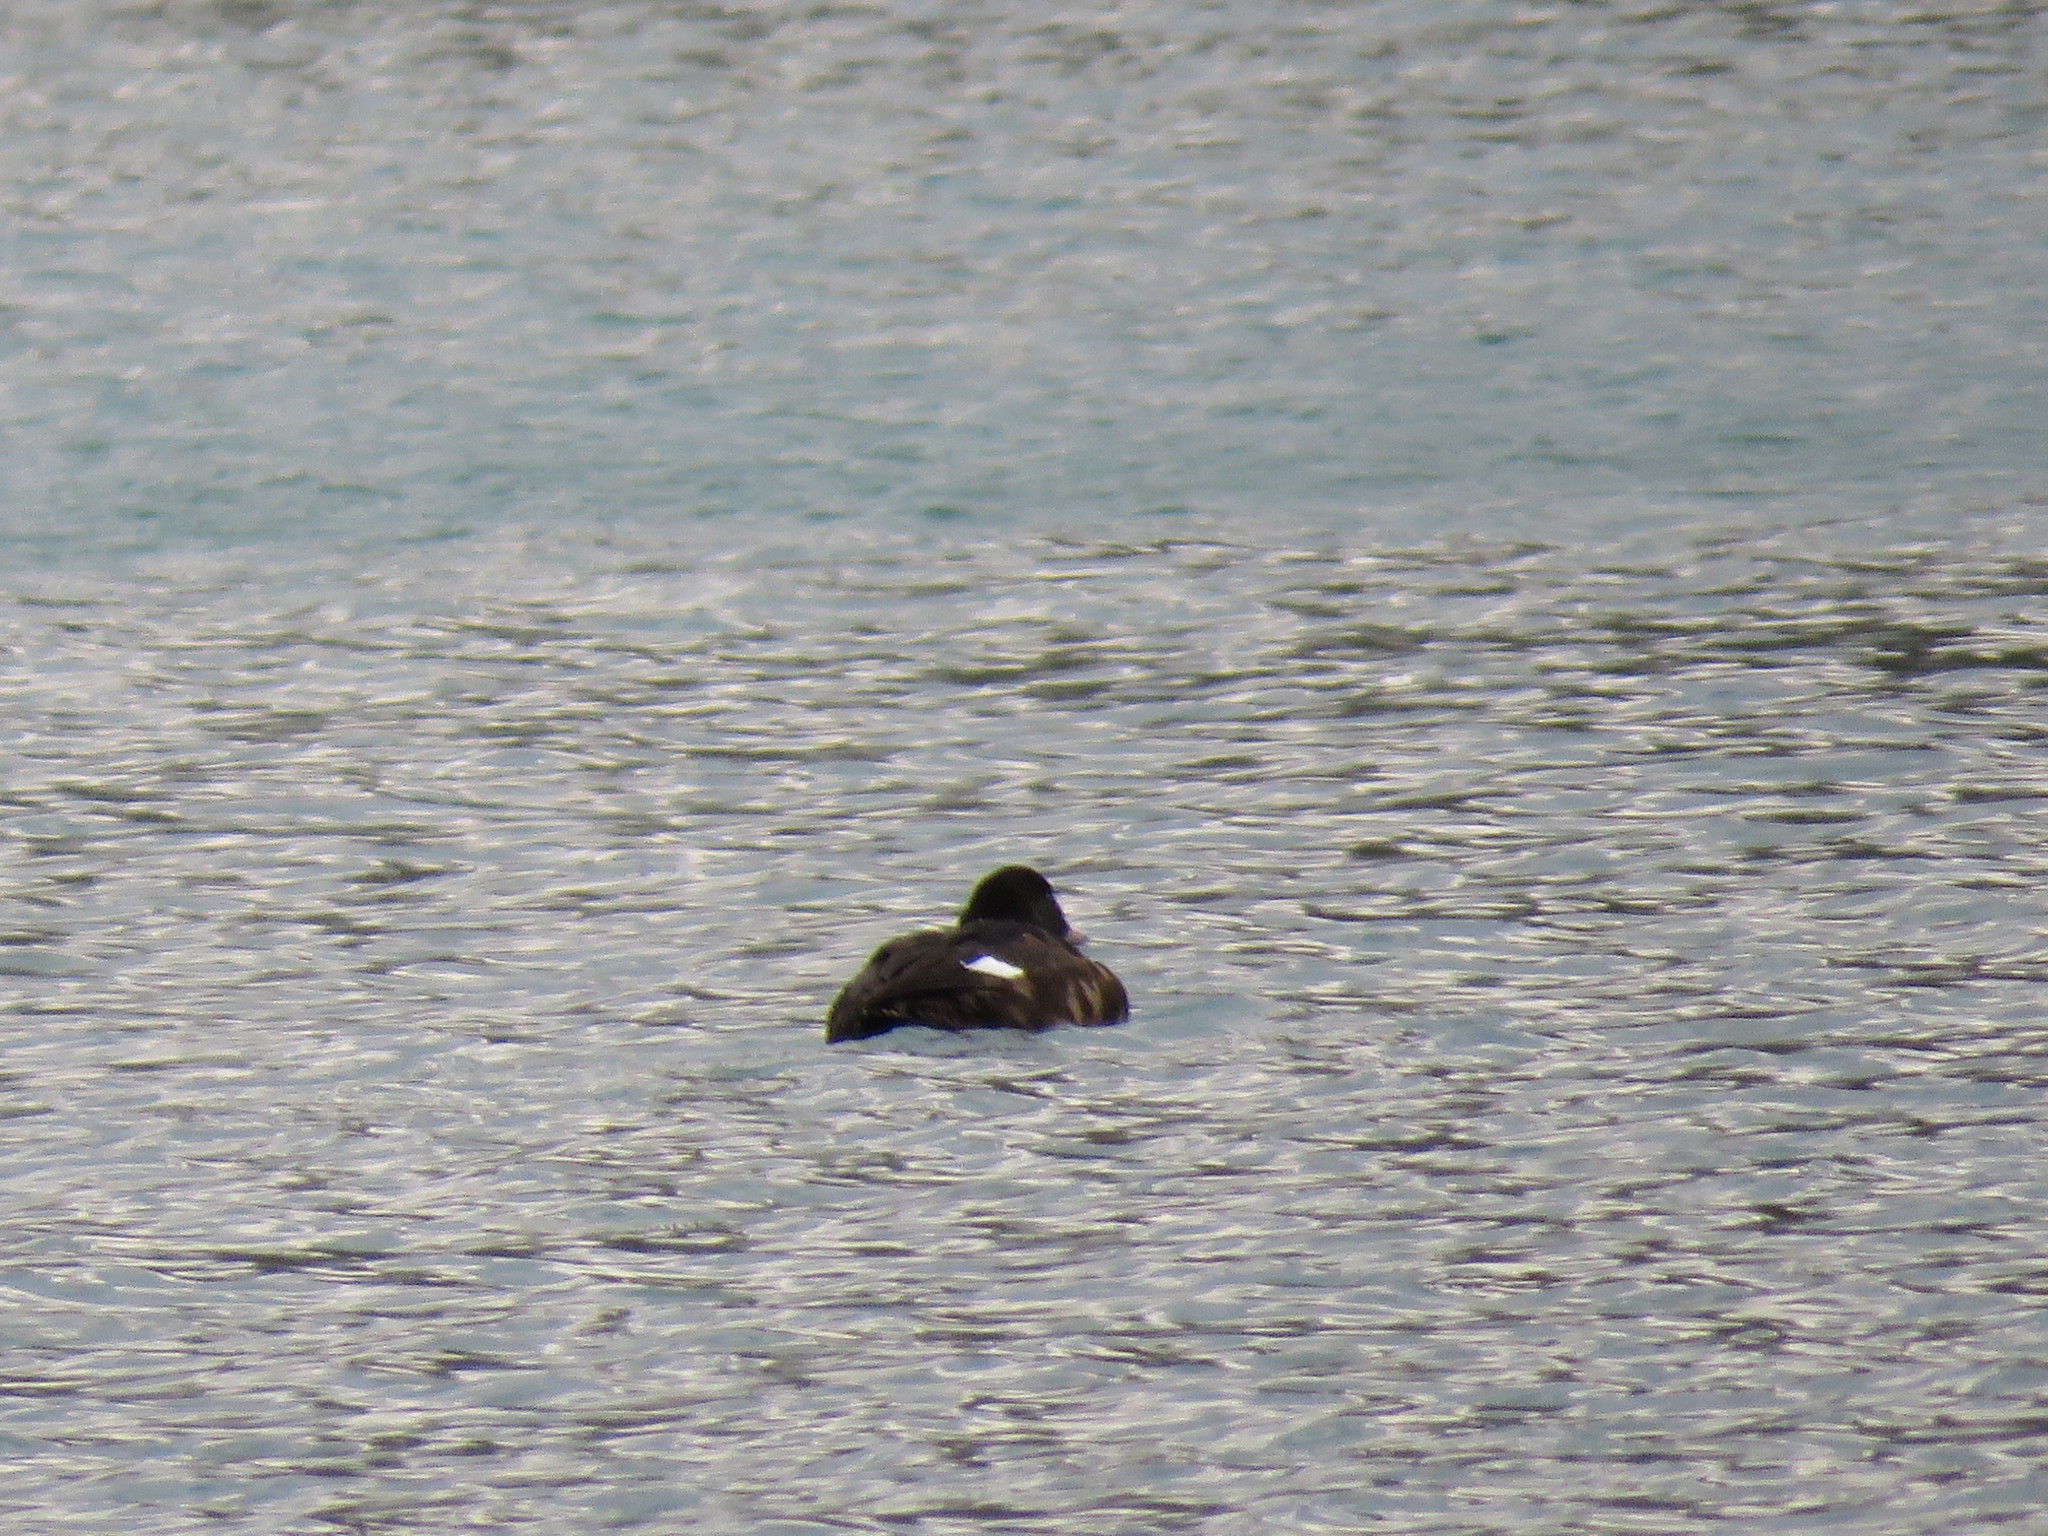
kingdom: Animalia
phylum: Chordata
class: Aves
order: Anseriformes
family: Anatidae
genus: Melanitta
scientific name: Melanitta deglandi
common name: White-winged scoter
